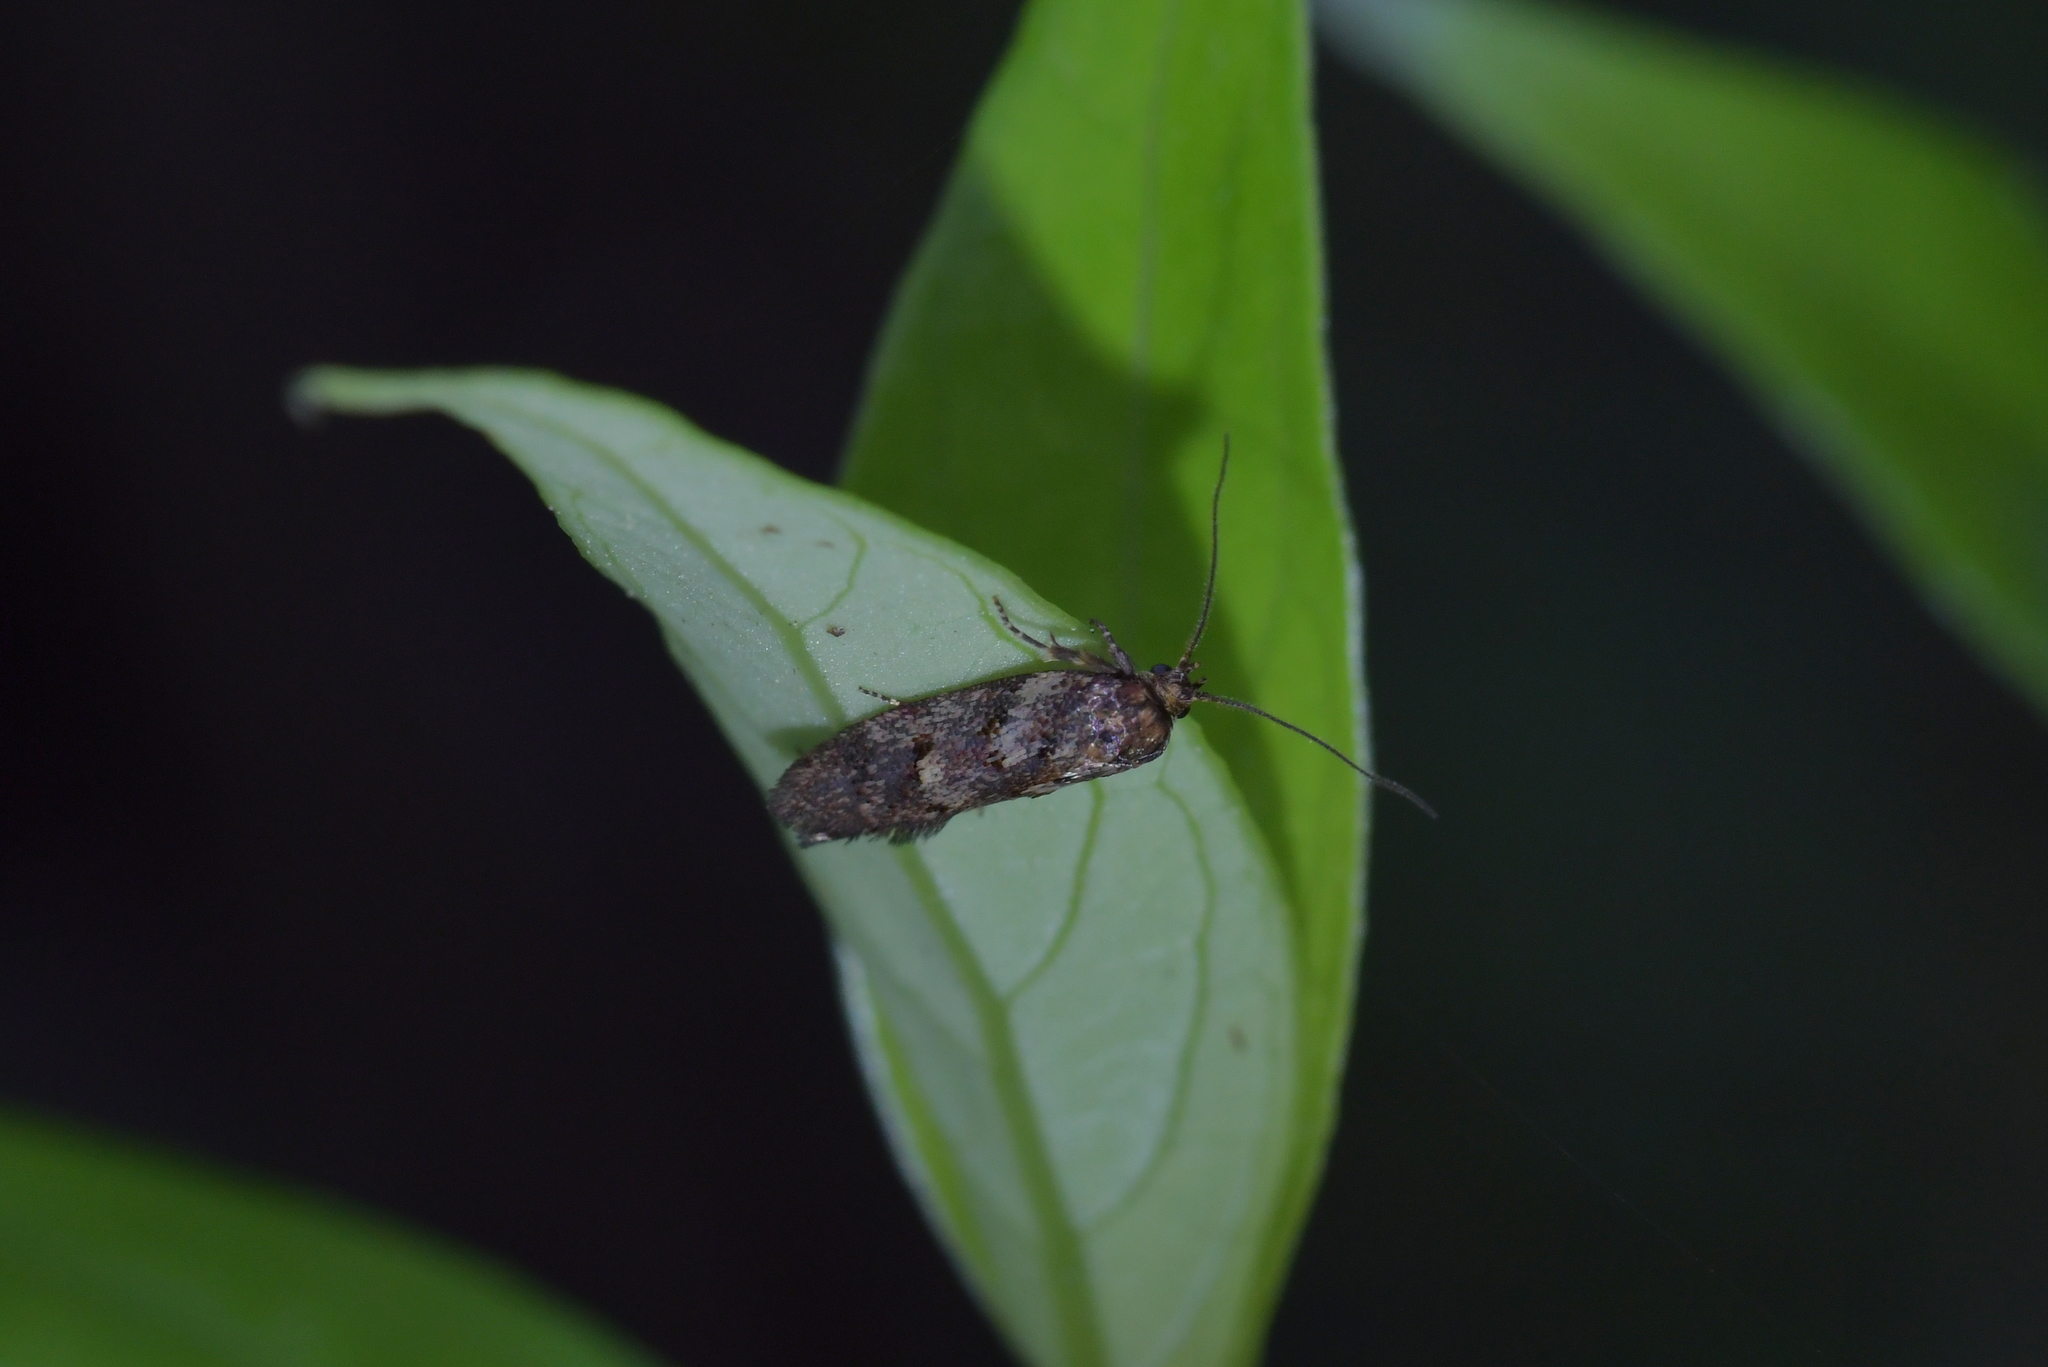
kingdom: Animalia
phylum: Arthropoda
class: Insecta
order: Lepidoptera
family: Oecophoridae
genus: Euchersadaula
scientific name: Euchersadaula
